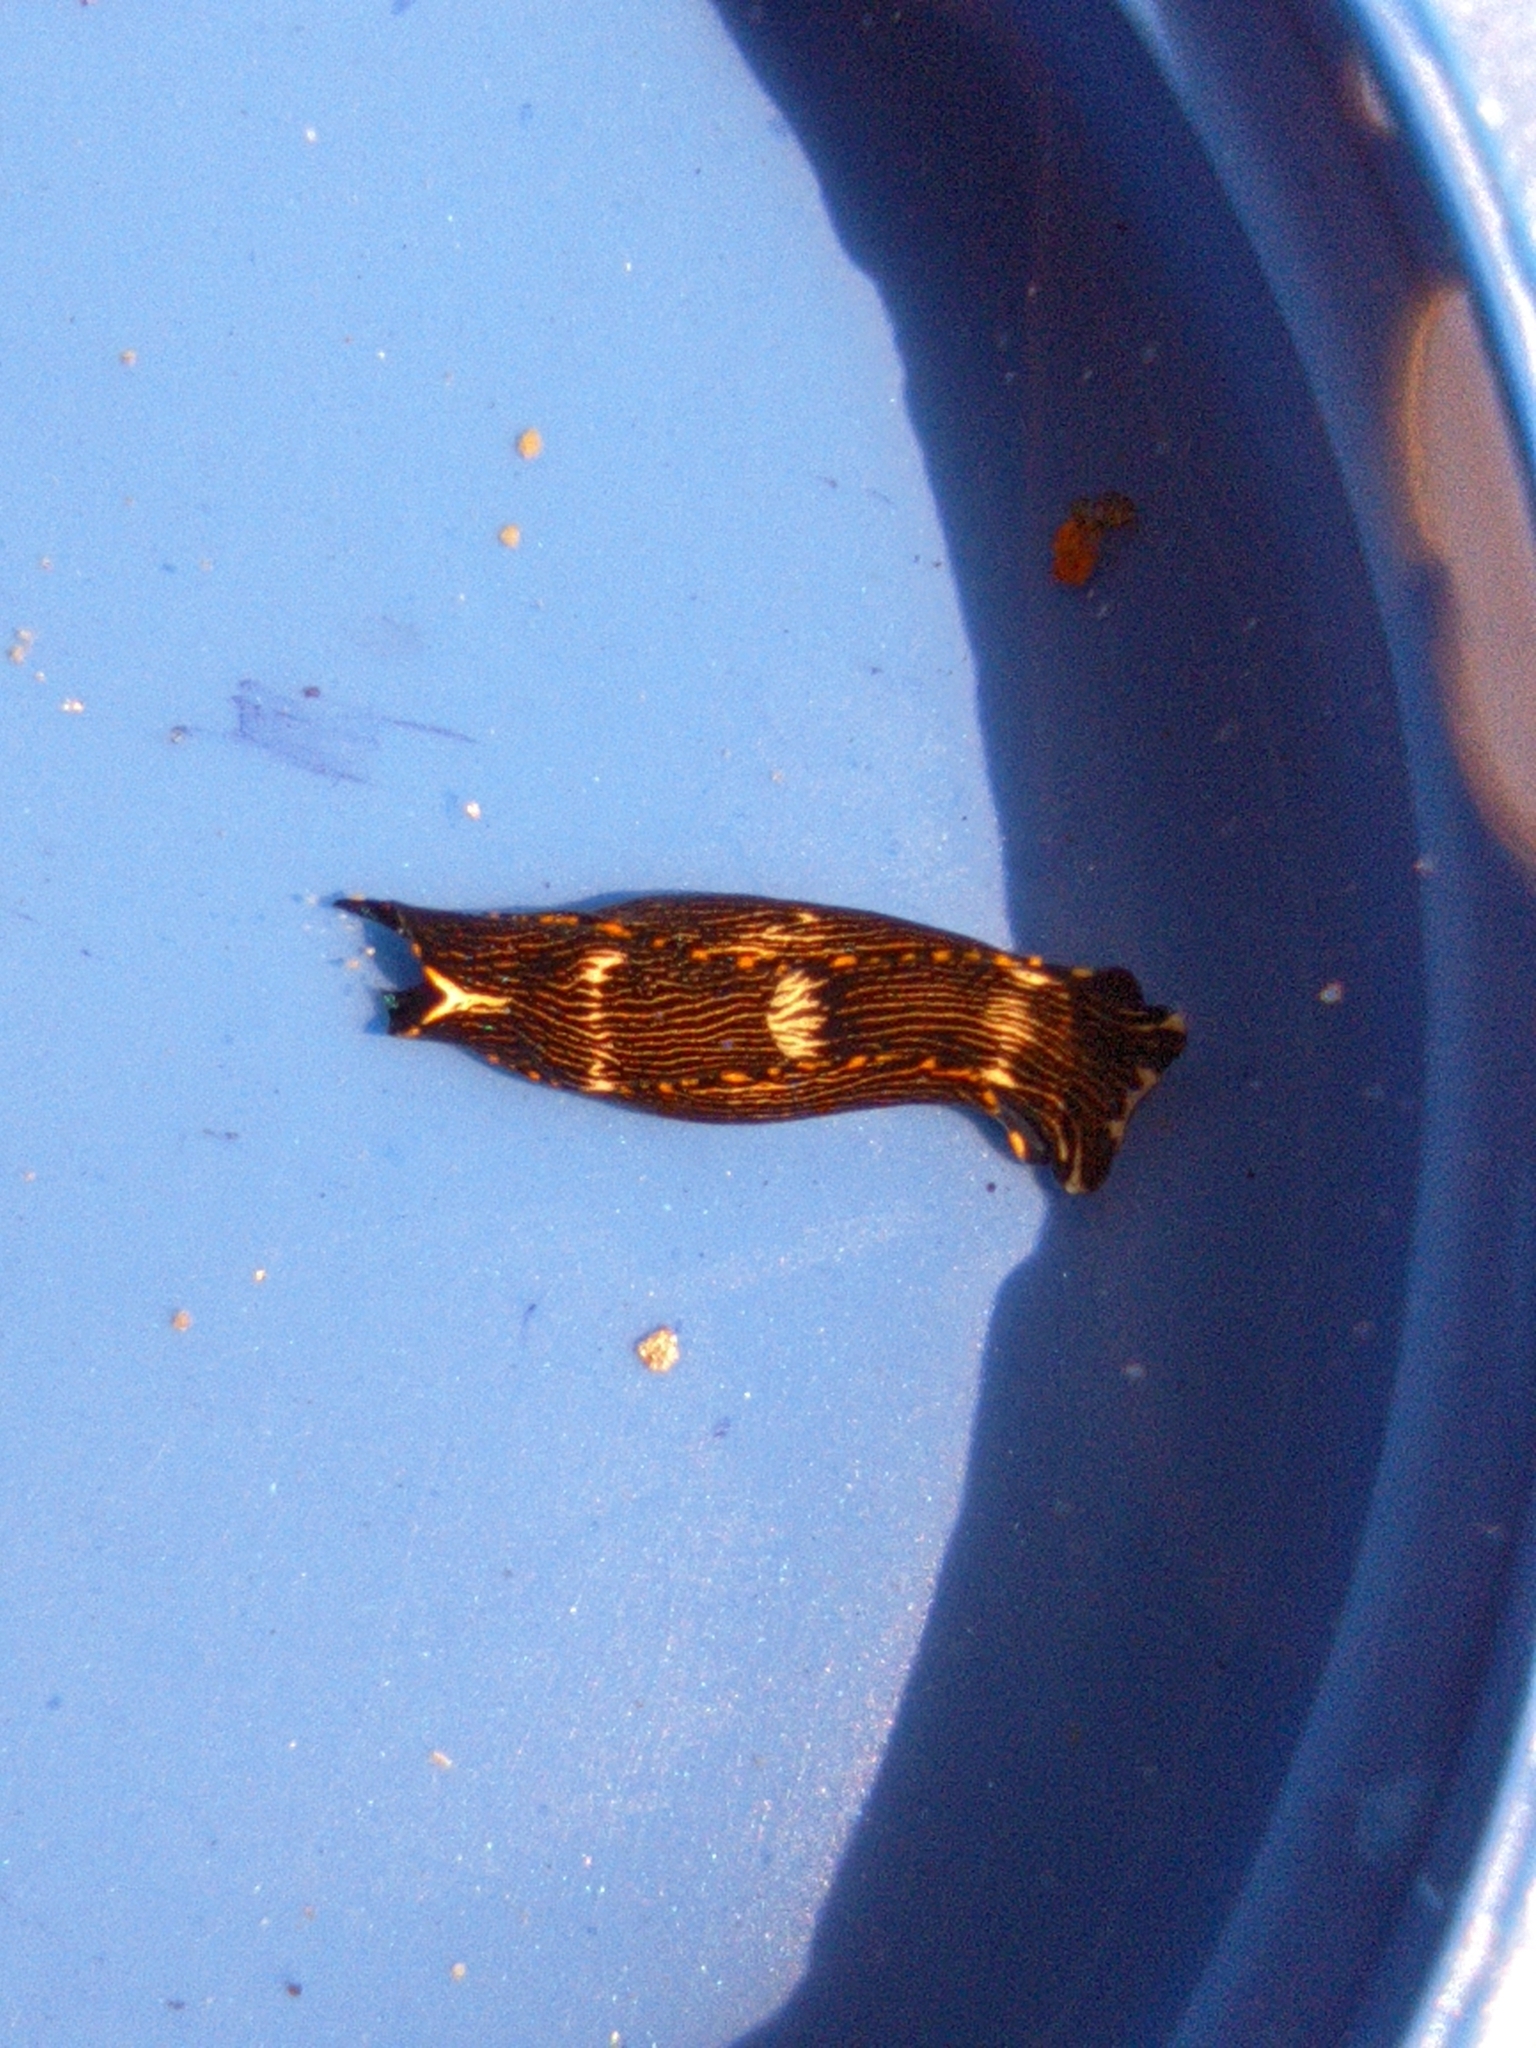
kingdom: Animalia
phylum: Mollusca
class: Gastropoda
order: Cephalaspidea
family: Aglajidae
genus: Navanax
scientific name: Navanax gemmatus
